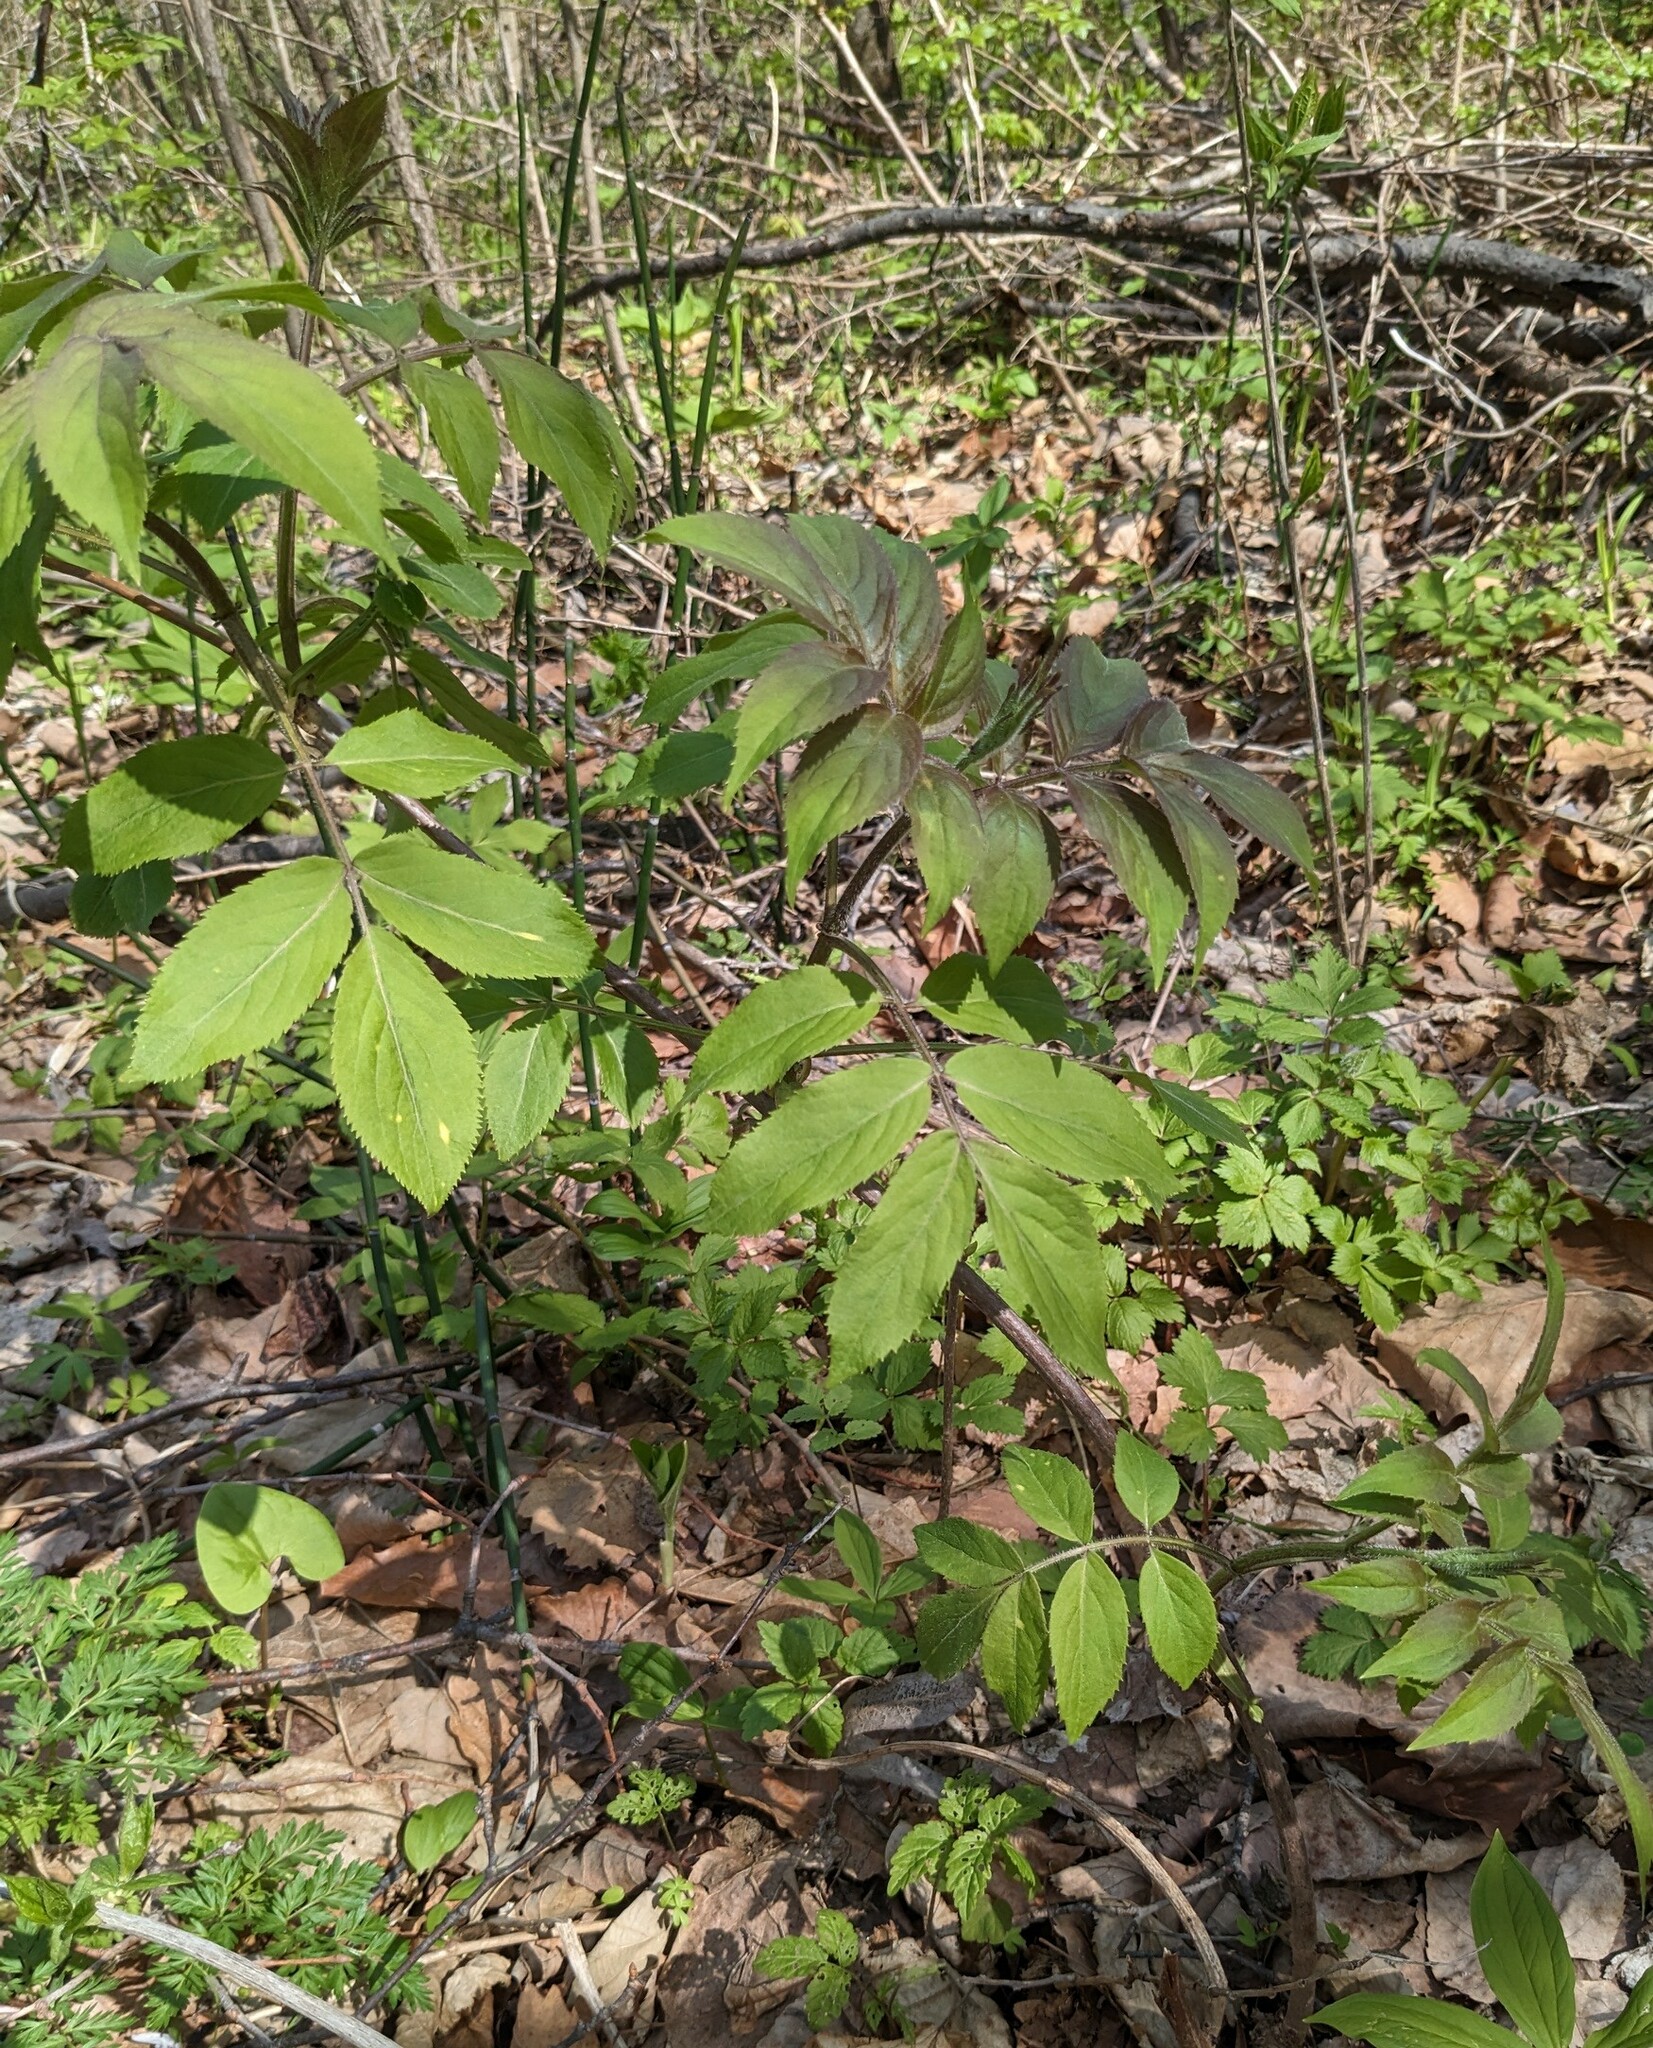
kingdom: Plantae
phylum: Tracheophyta
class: Magnoliopsida
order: Dipsacales
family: Viburnaceae
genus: Sambucus
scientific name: Sambucus sibirica
